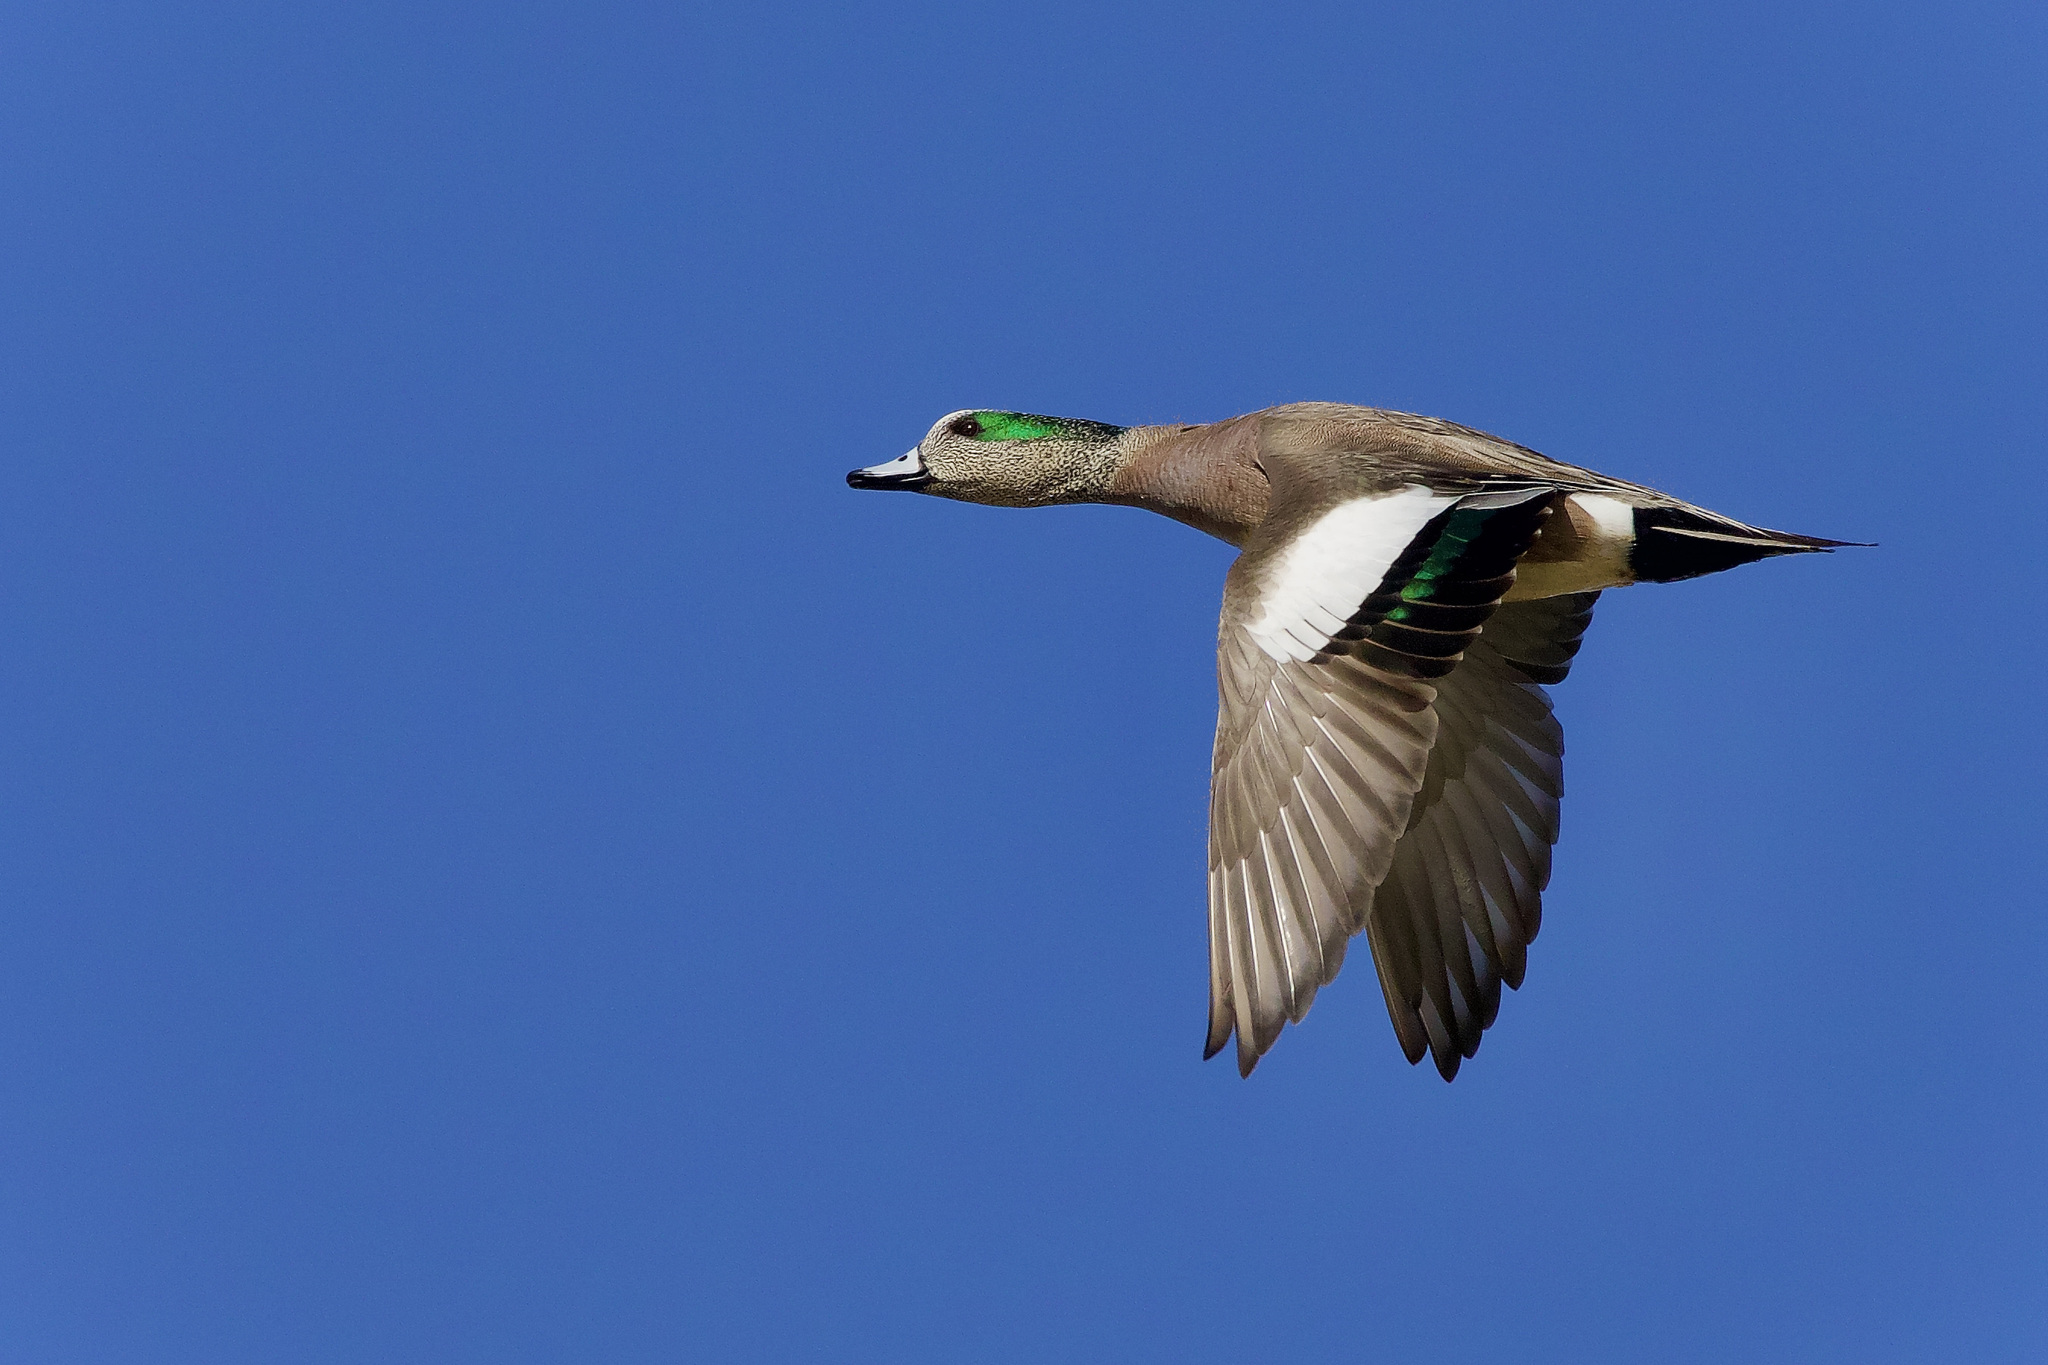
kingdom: Animalia
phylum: Chordata
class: Aves
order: Anseriformes
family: Anatidae
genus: Mareca
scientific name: Mareca americana
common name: American wigeon
